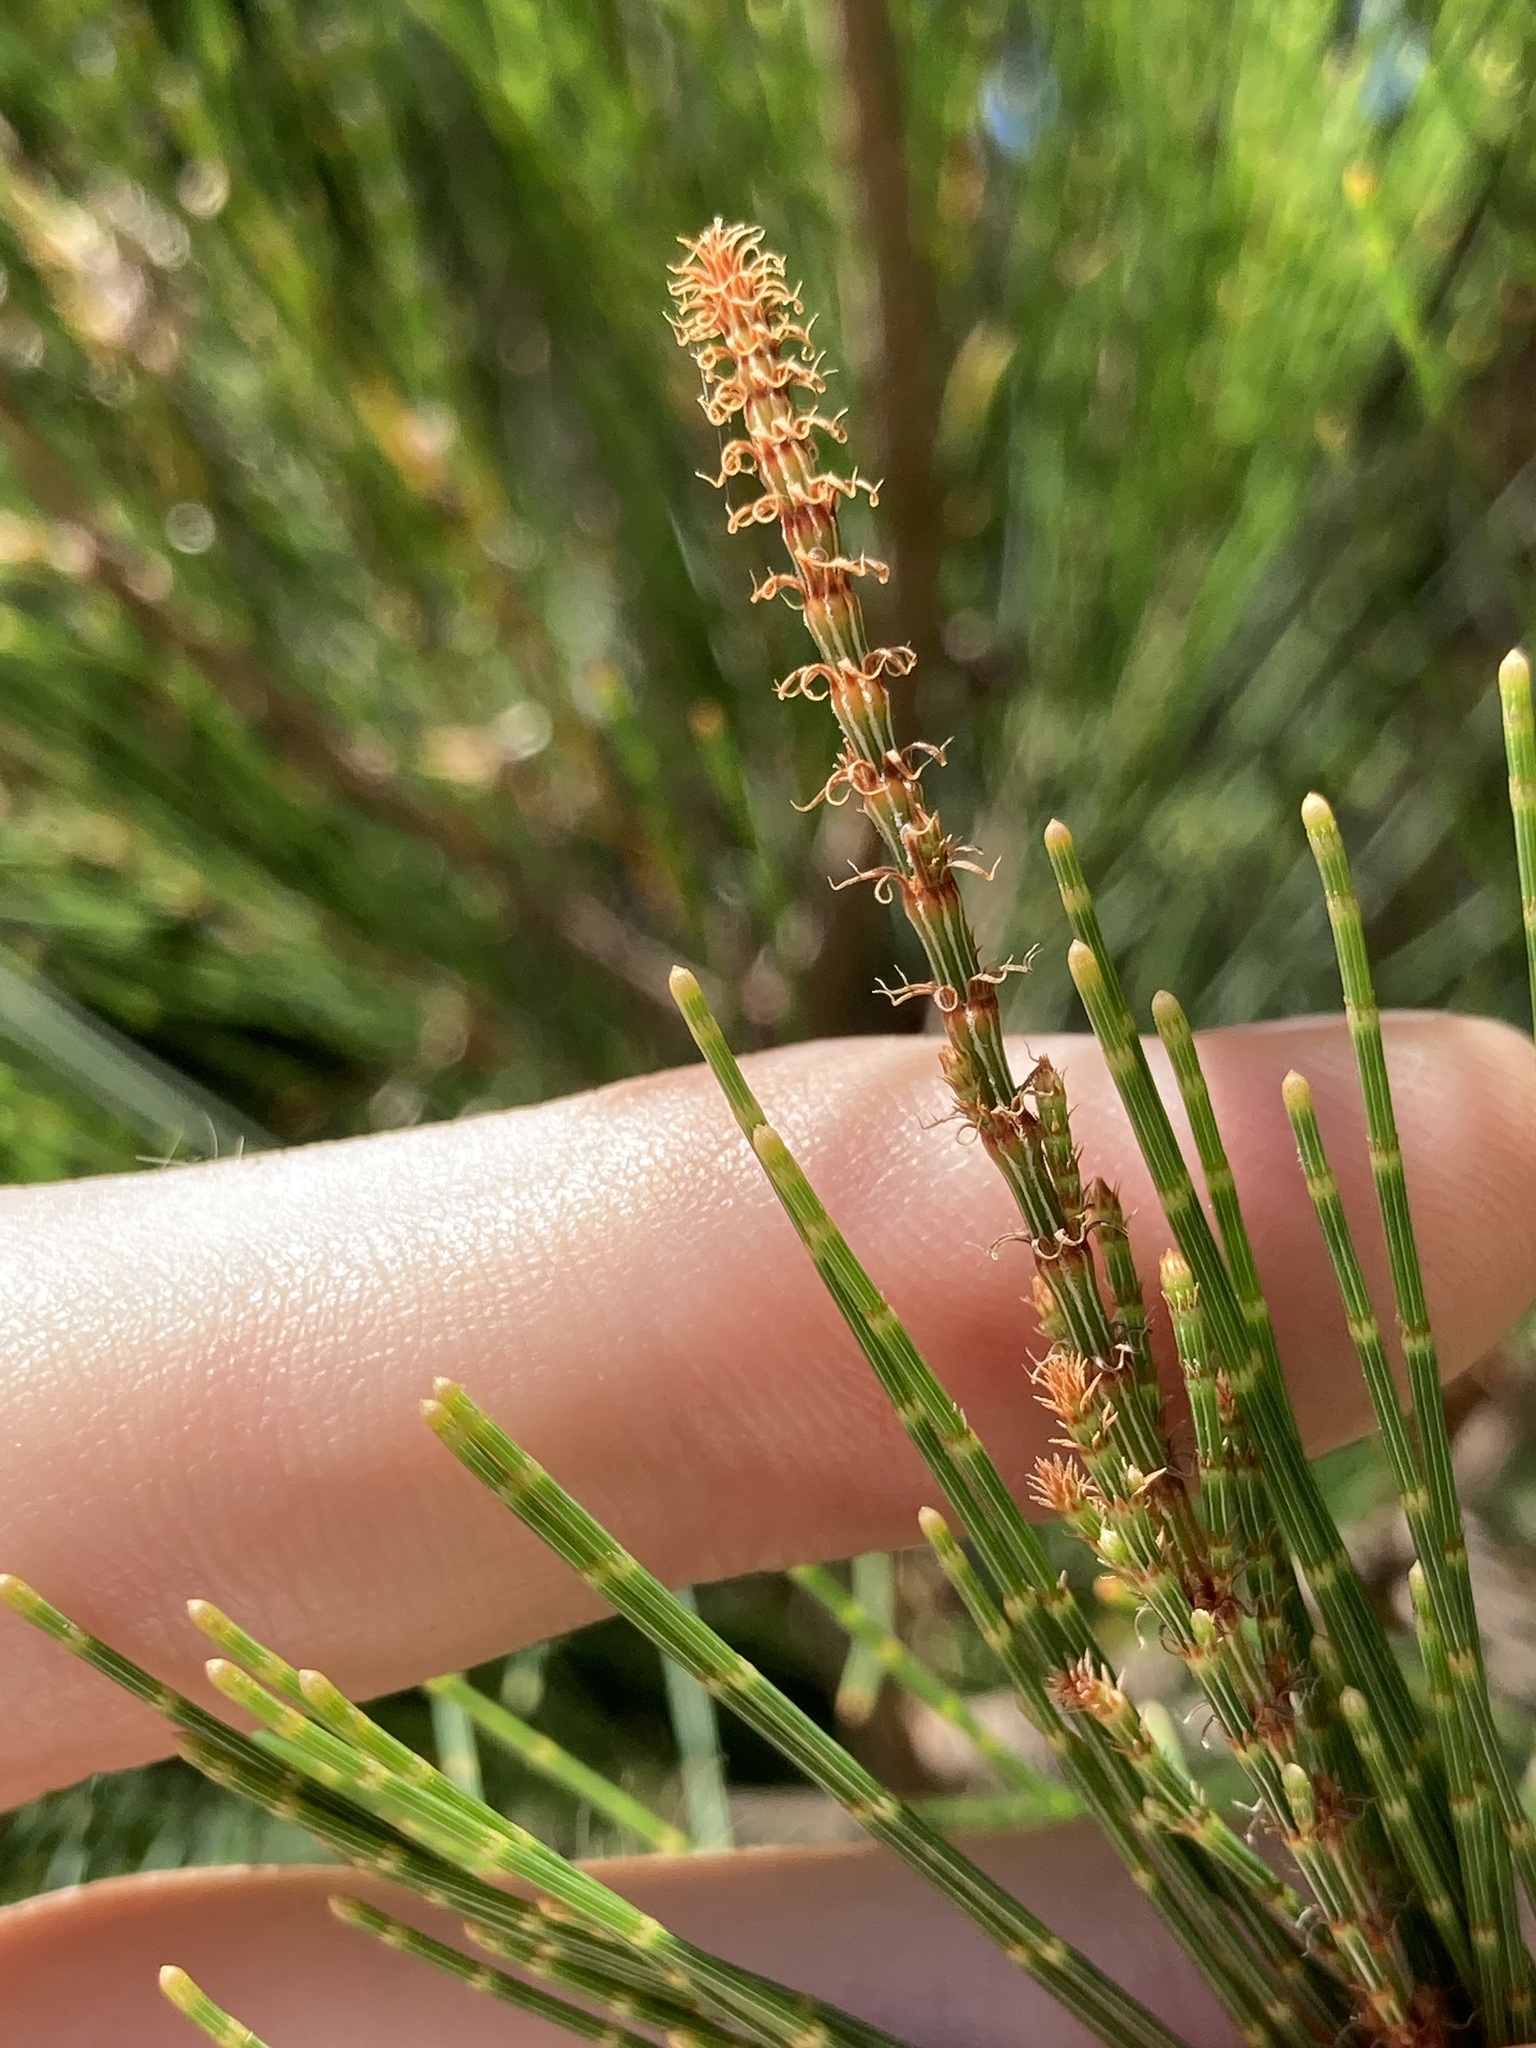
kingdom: Plantae
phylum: Tracheophyta
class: Magnoliopsida
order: Fagales
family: Casuarinaceae
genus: Allocasuarina
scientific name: Allocasuarina littoralis
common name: Black she-oak
